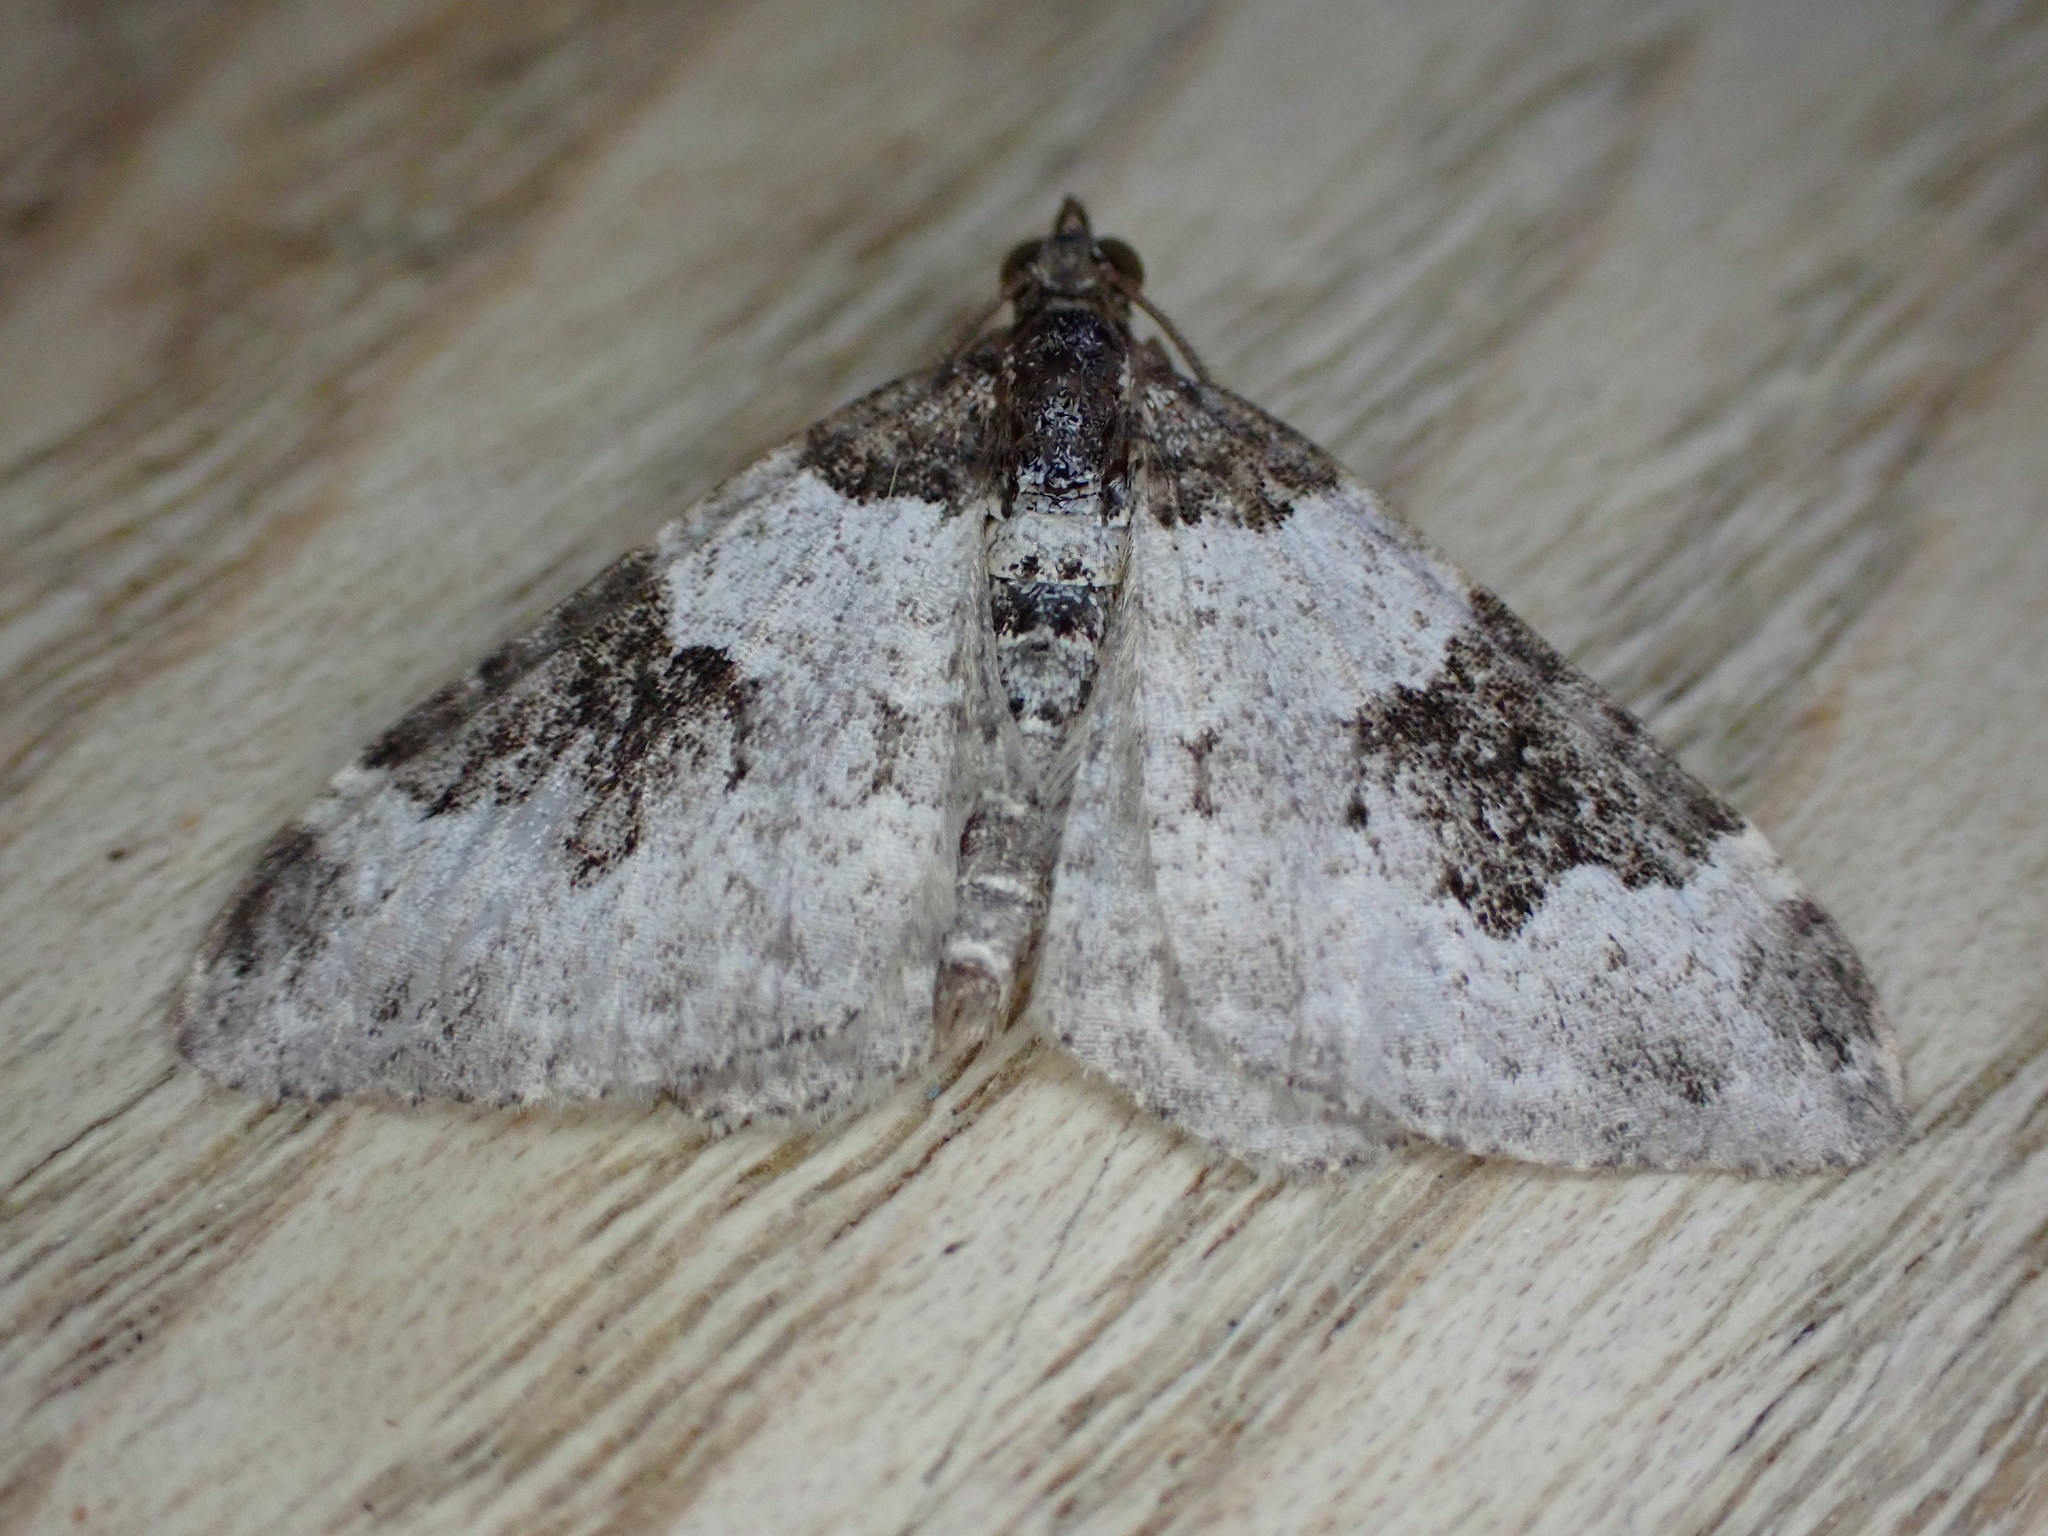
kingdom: Animalia
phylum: Arthropoda
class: Insecta
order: Lepidoptera
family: Geometridae
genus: Xanthorhoe
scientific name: Xanthorhoe fluctuata
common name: Garden carpet
